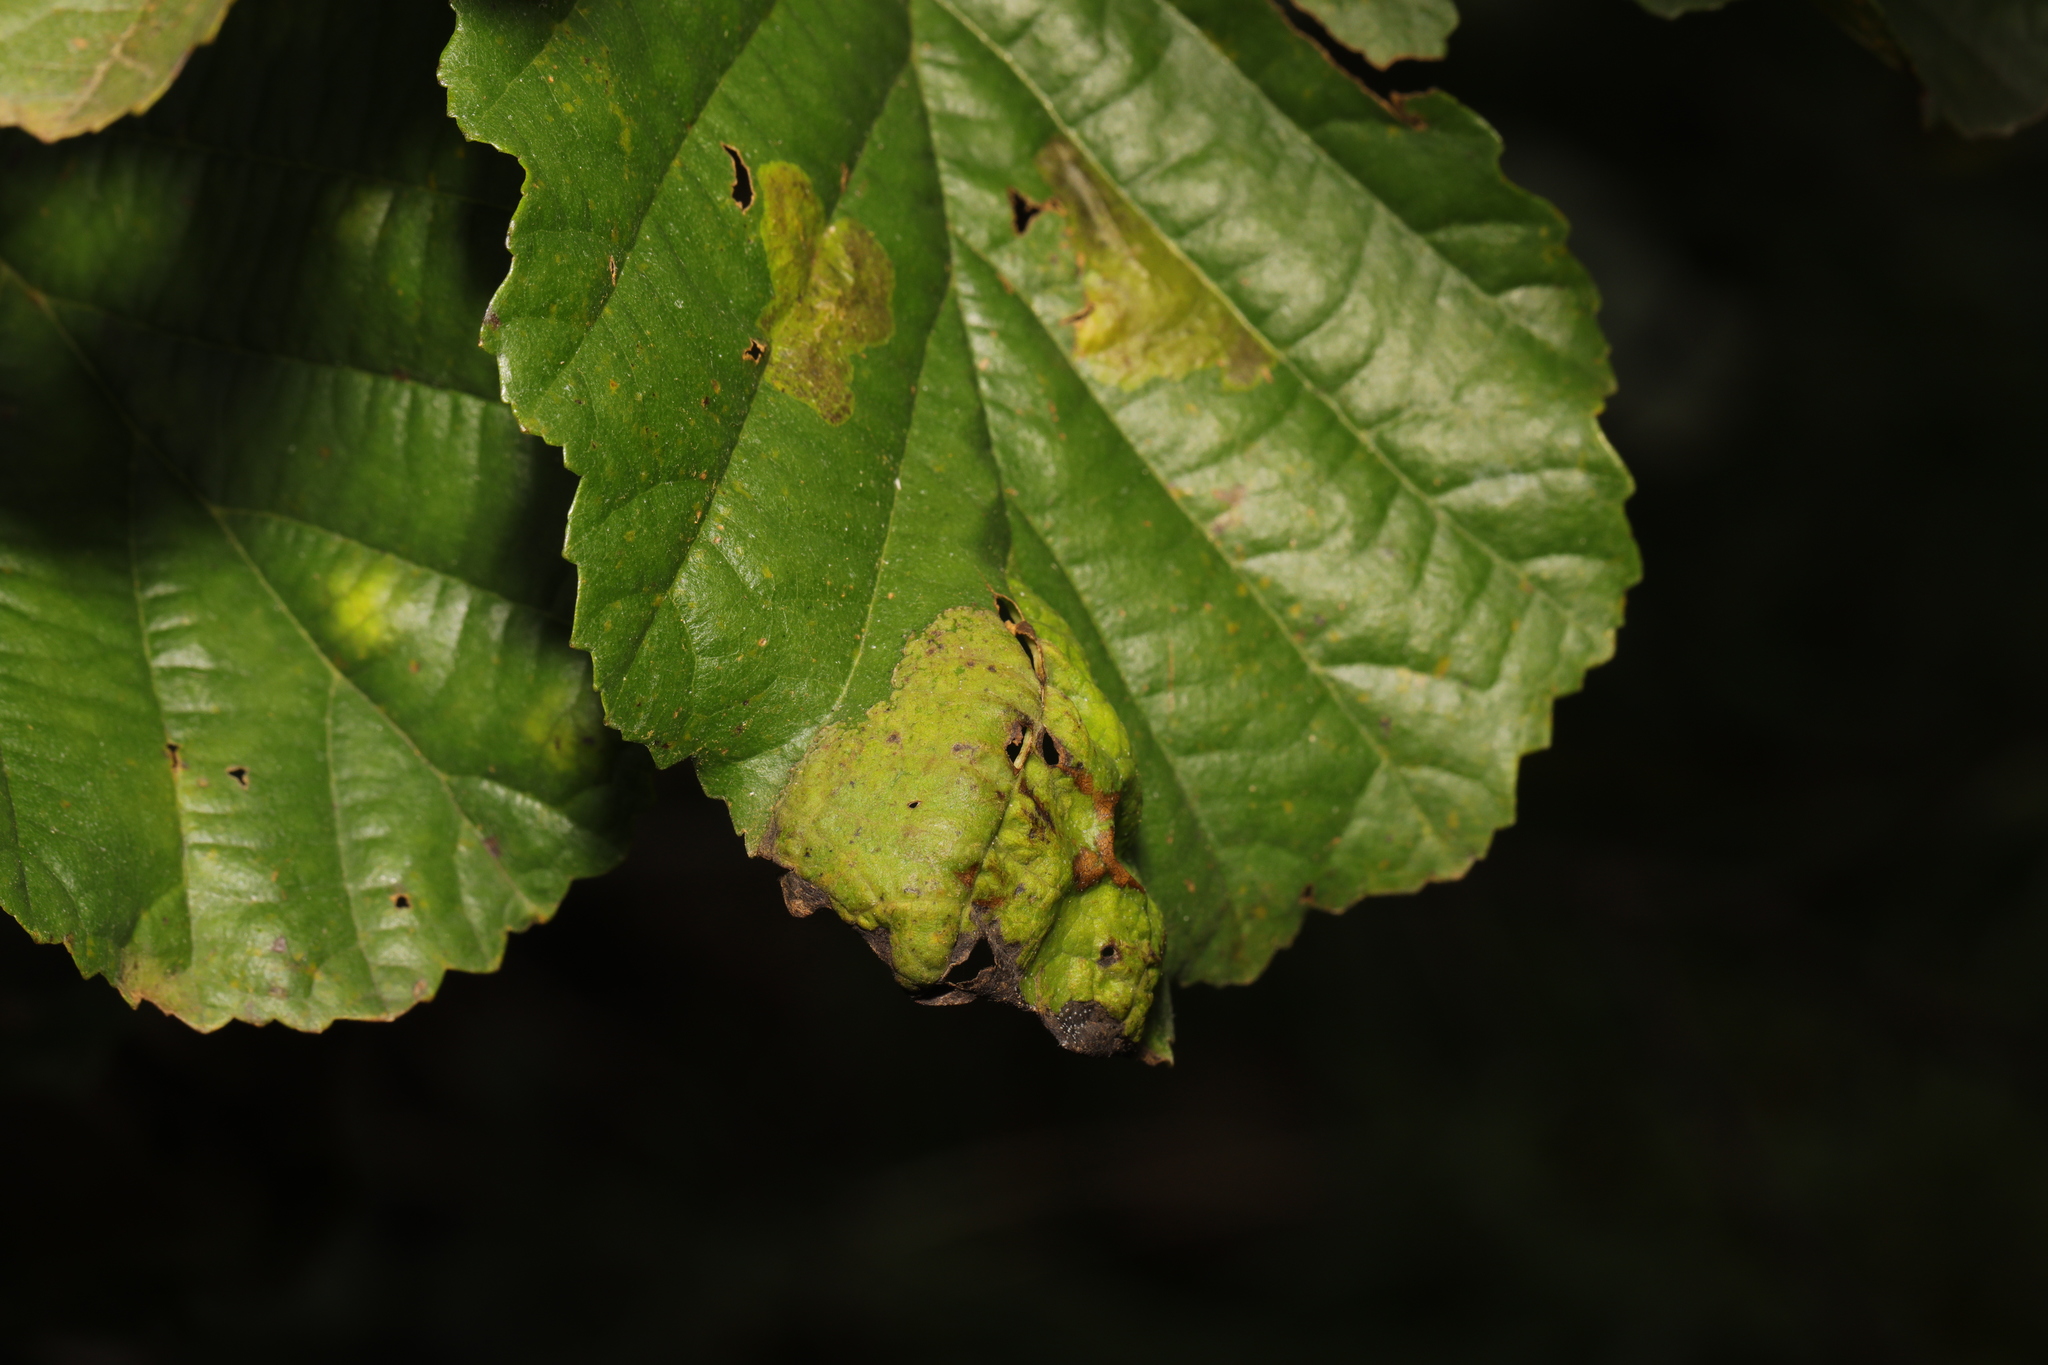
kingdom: Fungi
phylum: Ascomycota
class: Taphrinomycetes
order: Taphrinales
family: Taphrinaceae
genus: Taphrina
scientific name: Taphrina tosquinetii
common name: Alder wrinkle
